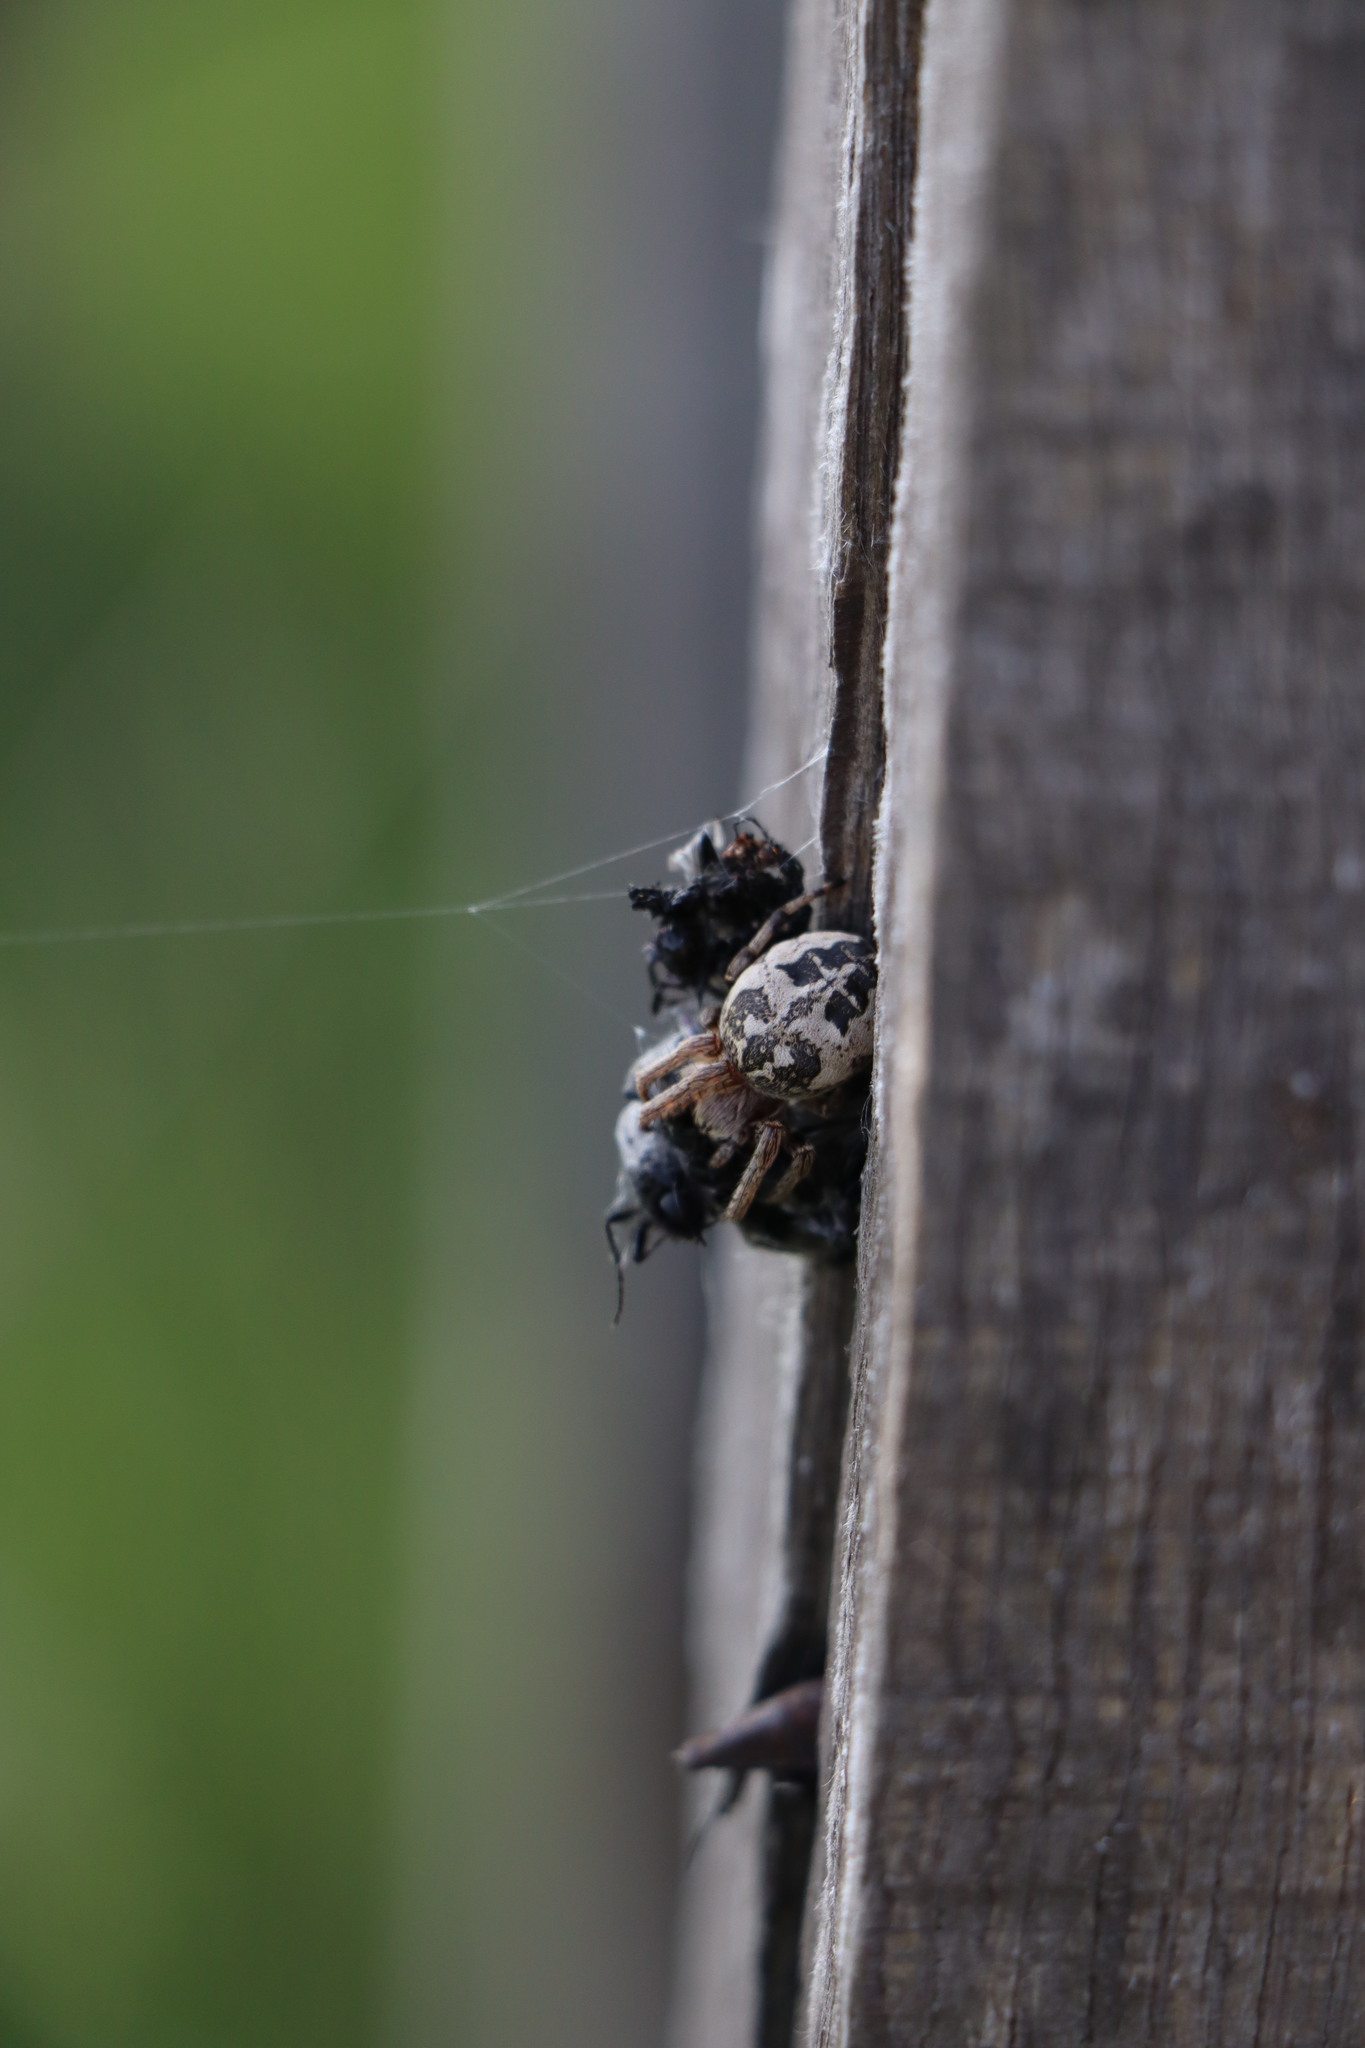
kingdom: Animalia
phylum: Arthropoda
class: Arachnida
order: Araneae
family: Araneidae
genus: Larinioides
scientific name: Larinioides cornutus
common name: Furrow orbweaver
